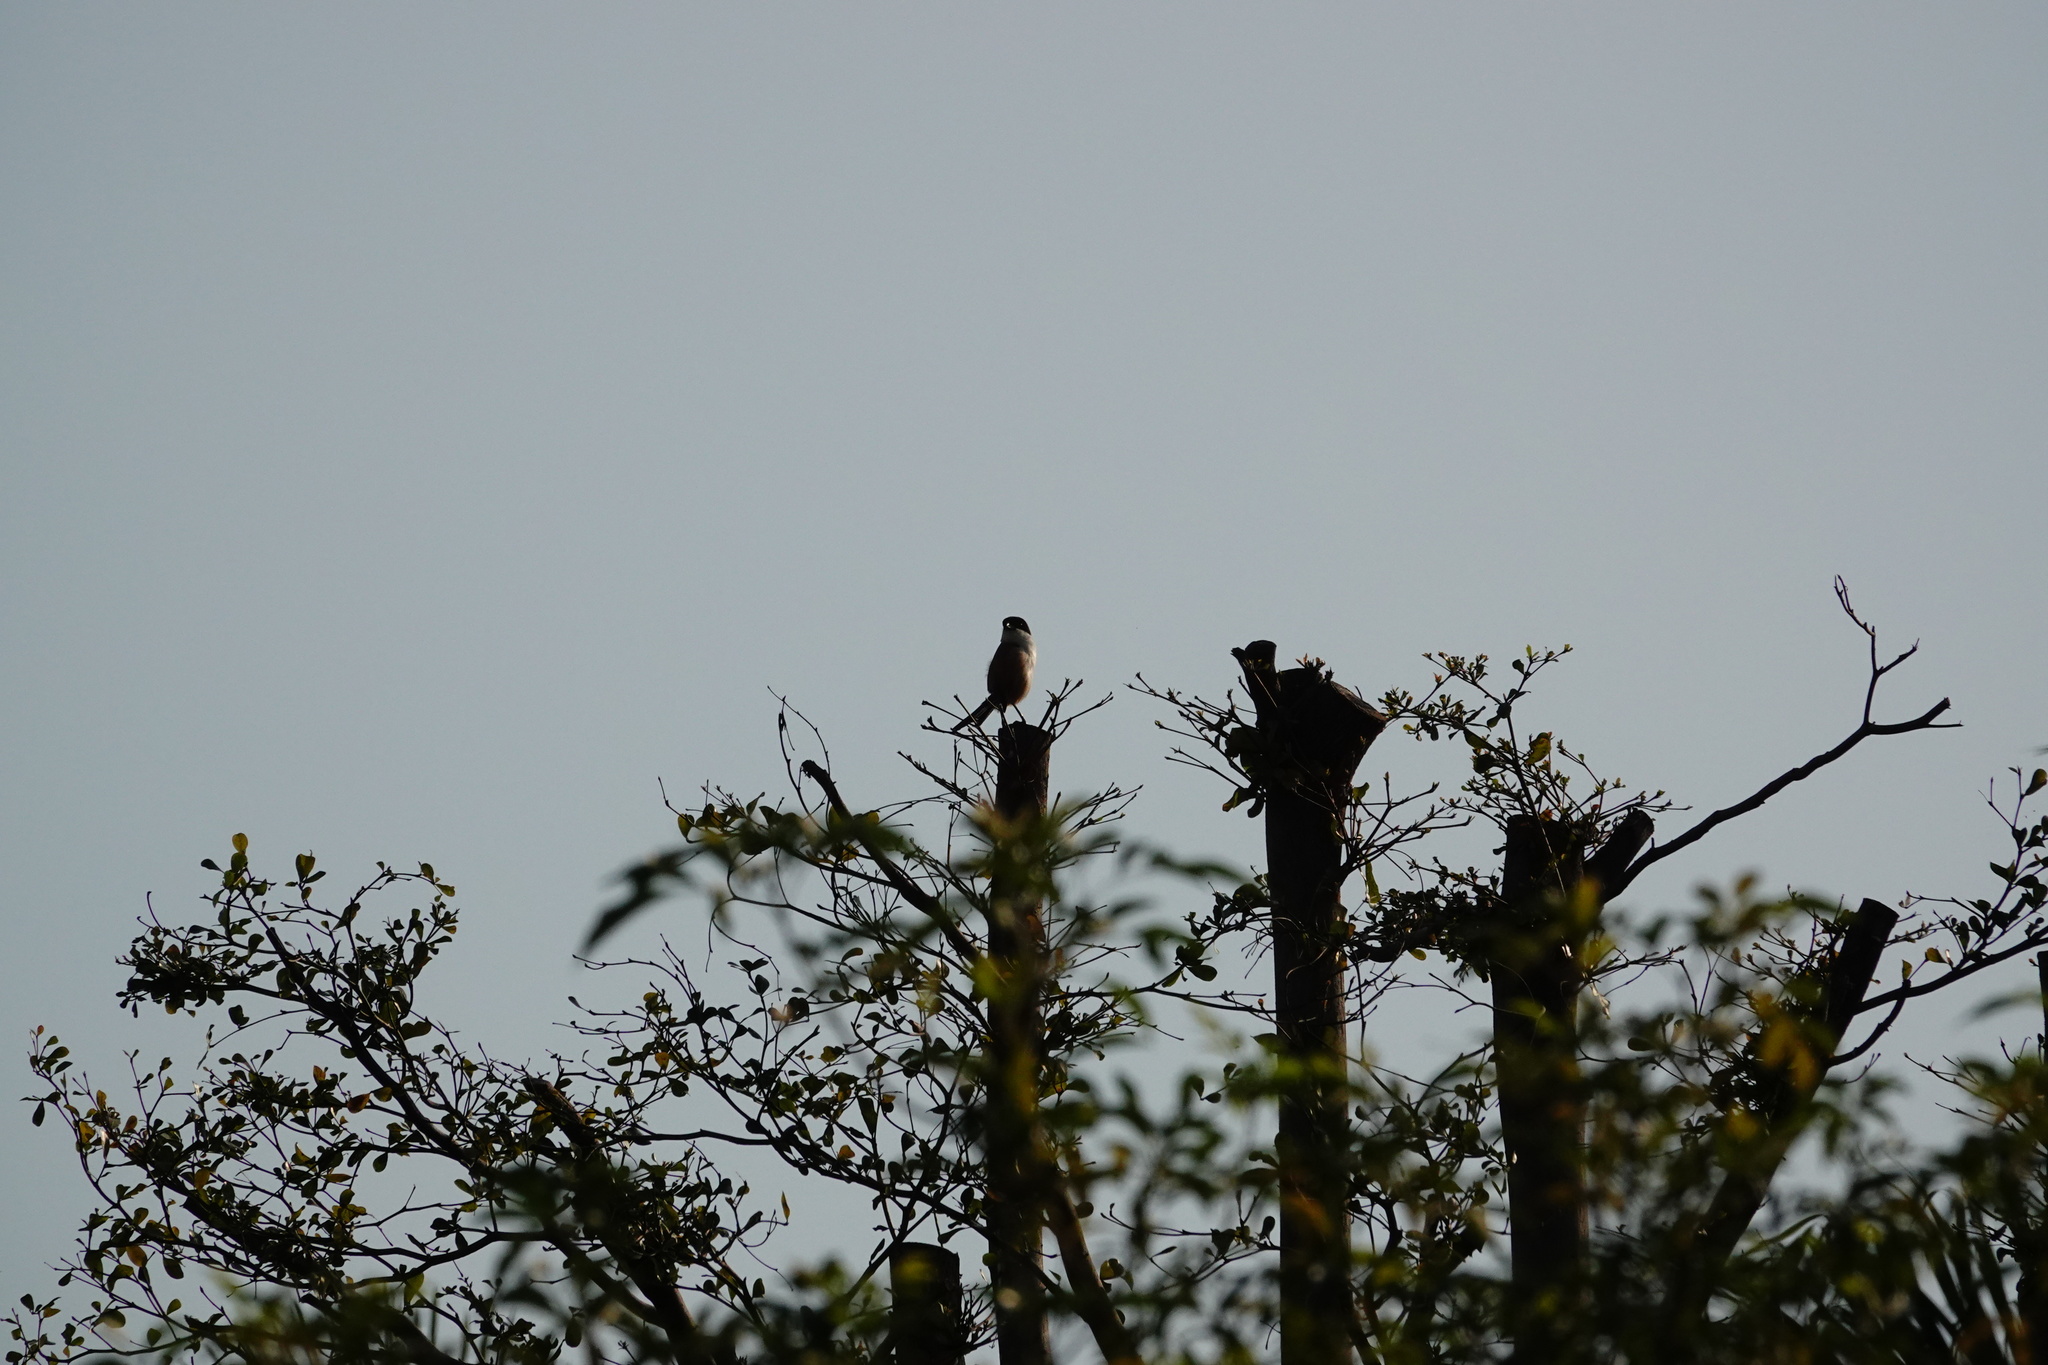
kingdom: Animalia
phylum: Chordata
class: Aves
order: Passeriformes
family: Laniidae
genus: Lanius
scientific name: Lanius schach
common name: Long-tailed shrike
